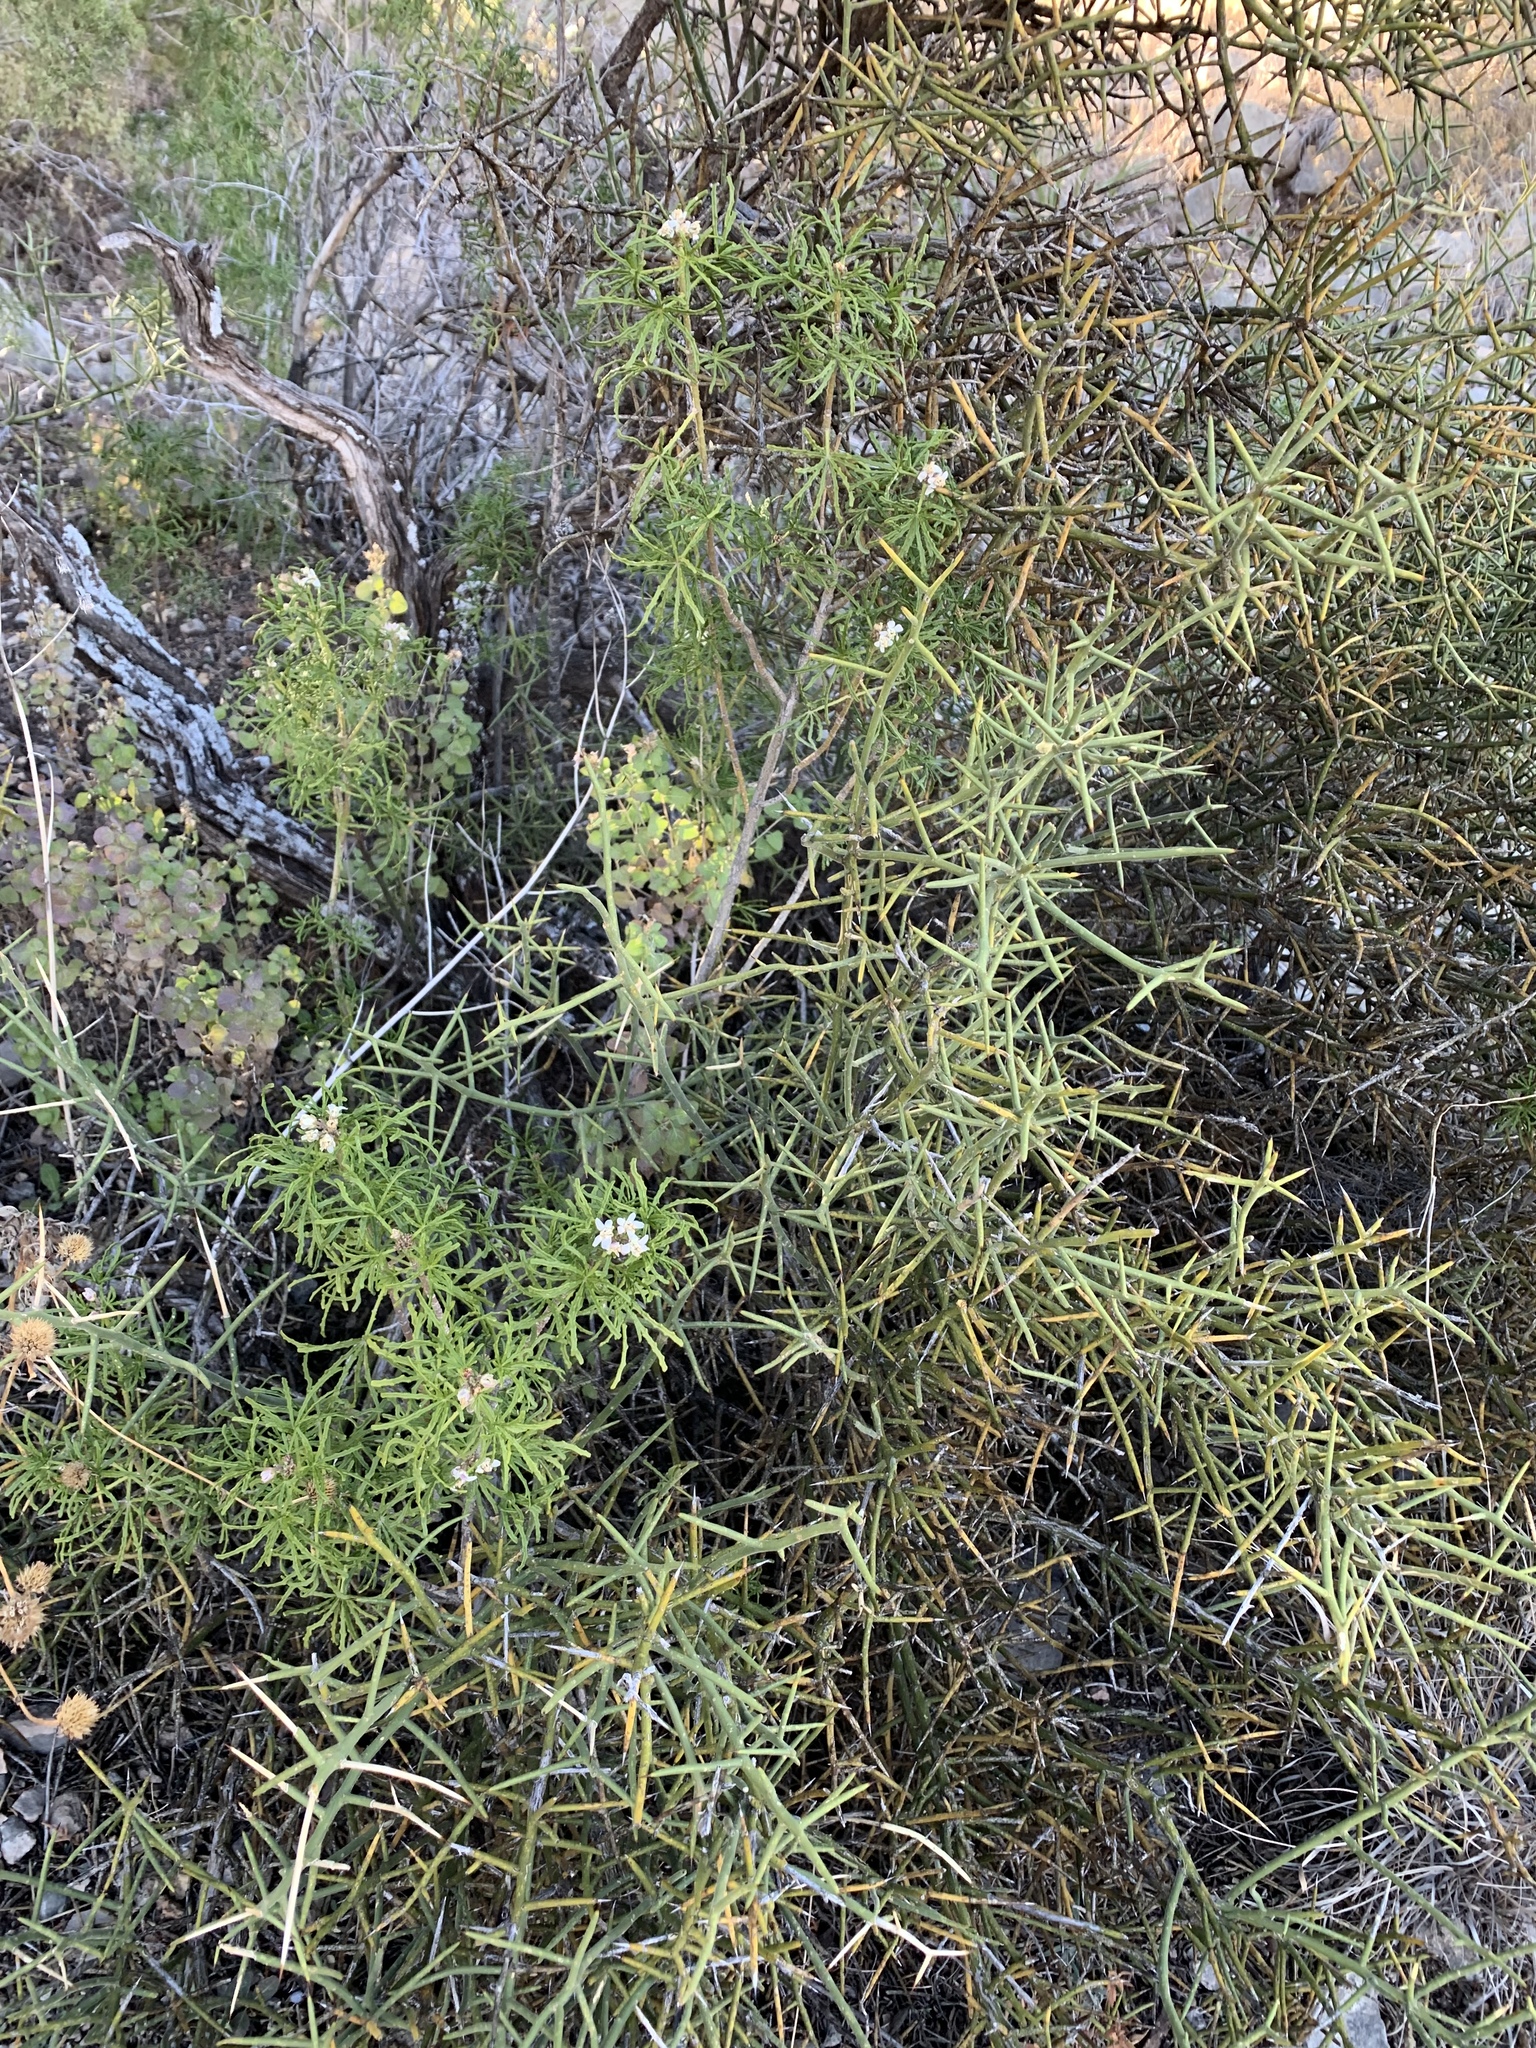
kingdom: Plantae
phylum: Tracheophyta
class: Magnoliopsida
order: Sapindales
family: Rutaceae
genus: Choisya
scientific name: Choisya dumosa
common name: Mexican-orange
